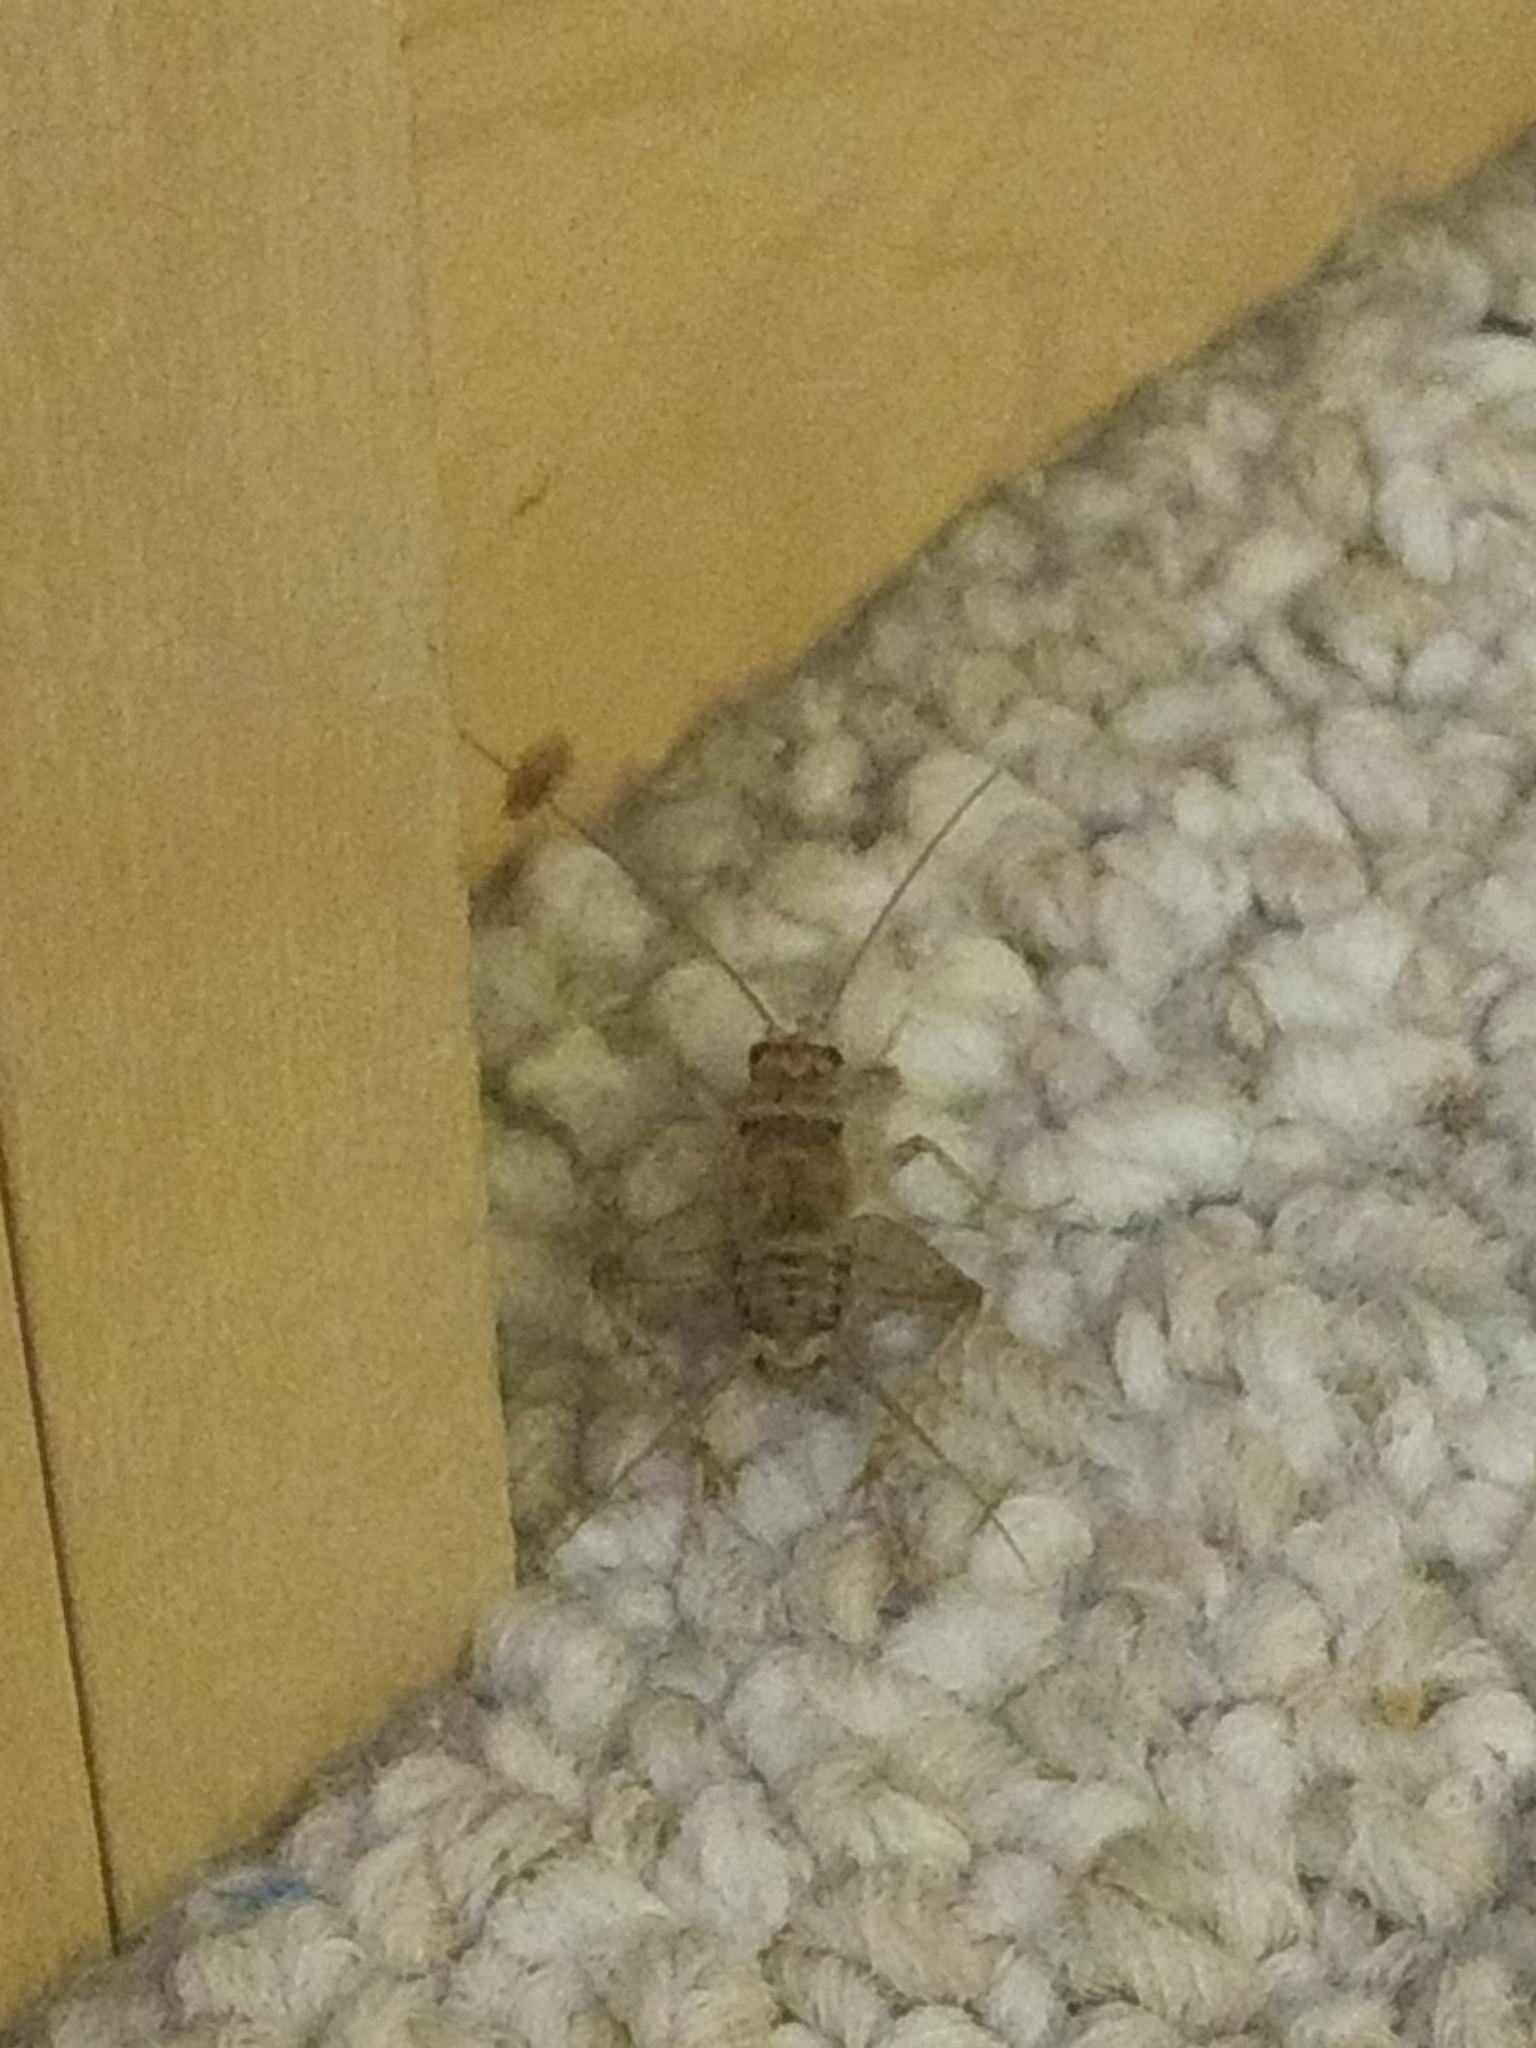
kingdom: Animalia
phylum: Arthropoda
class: Insecta
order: Orthoptera
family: Gryllidae
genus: Gryllodes
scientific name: Gryllodes sigillatus
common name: Tropical house cricket
